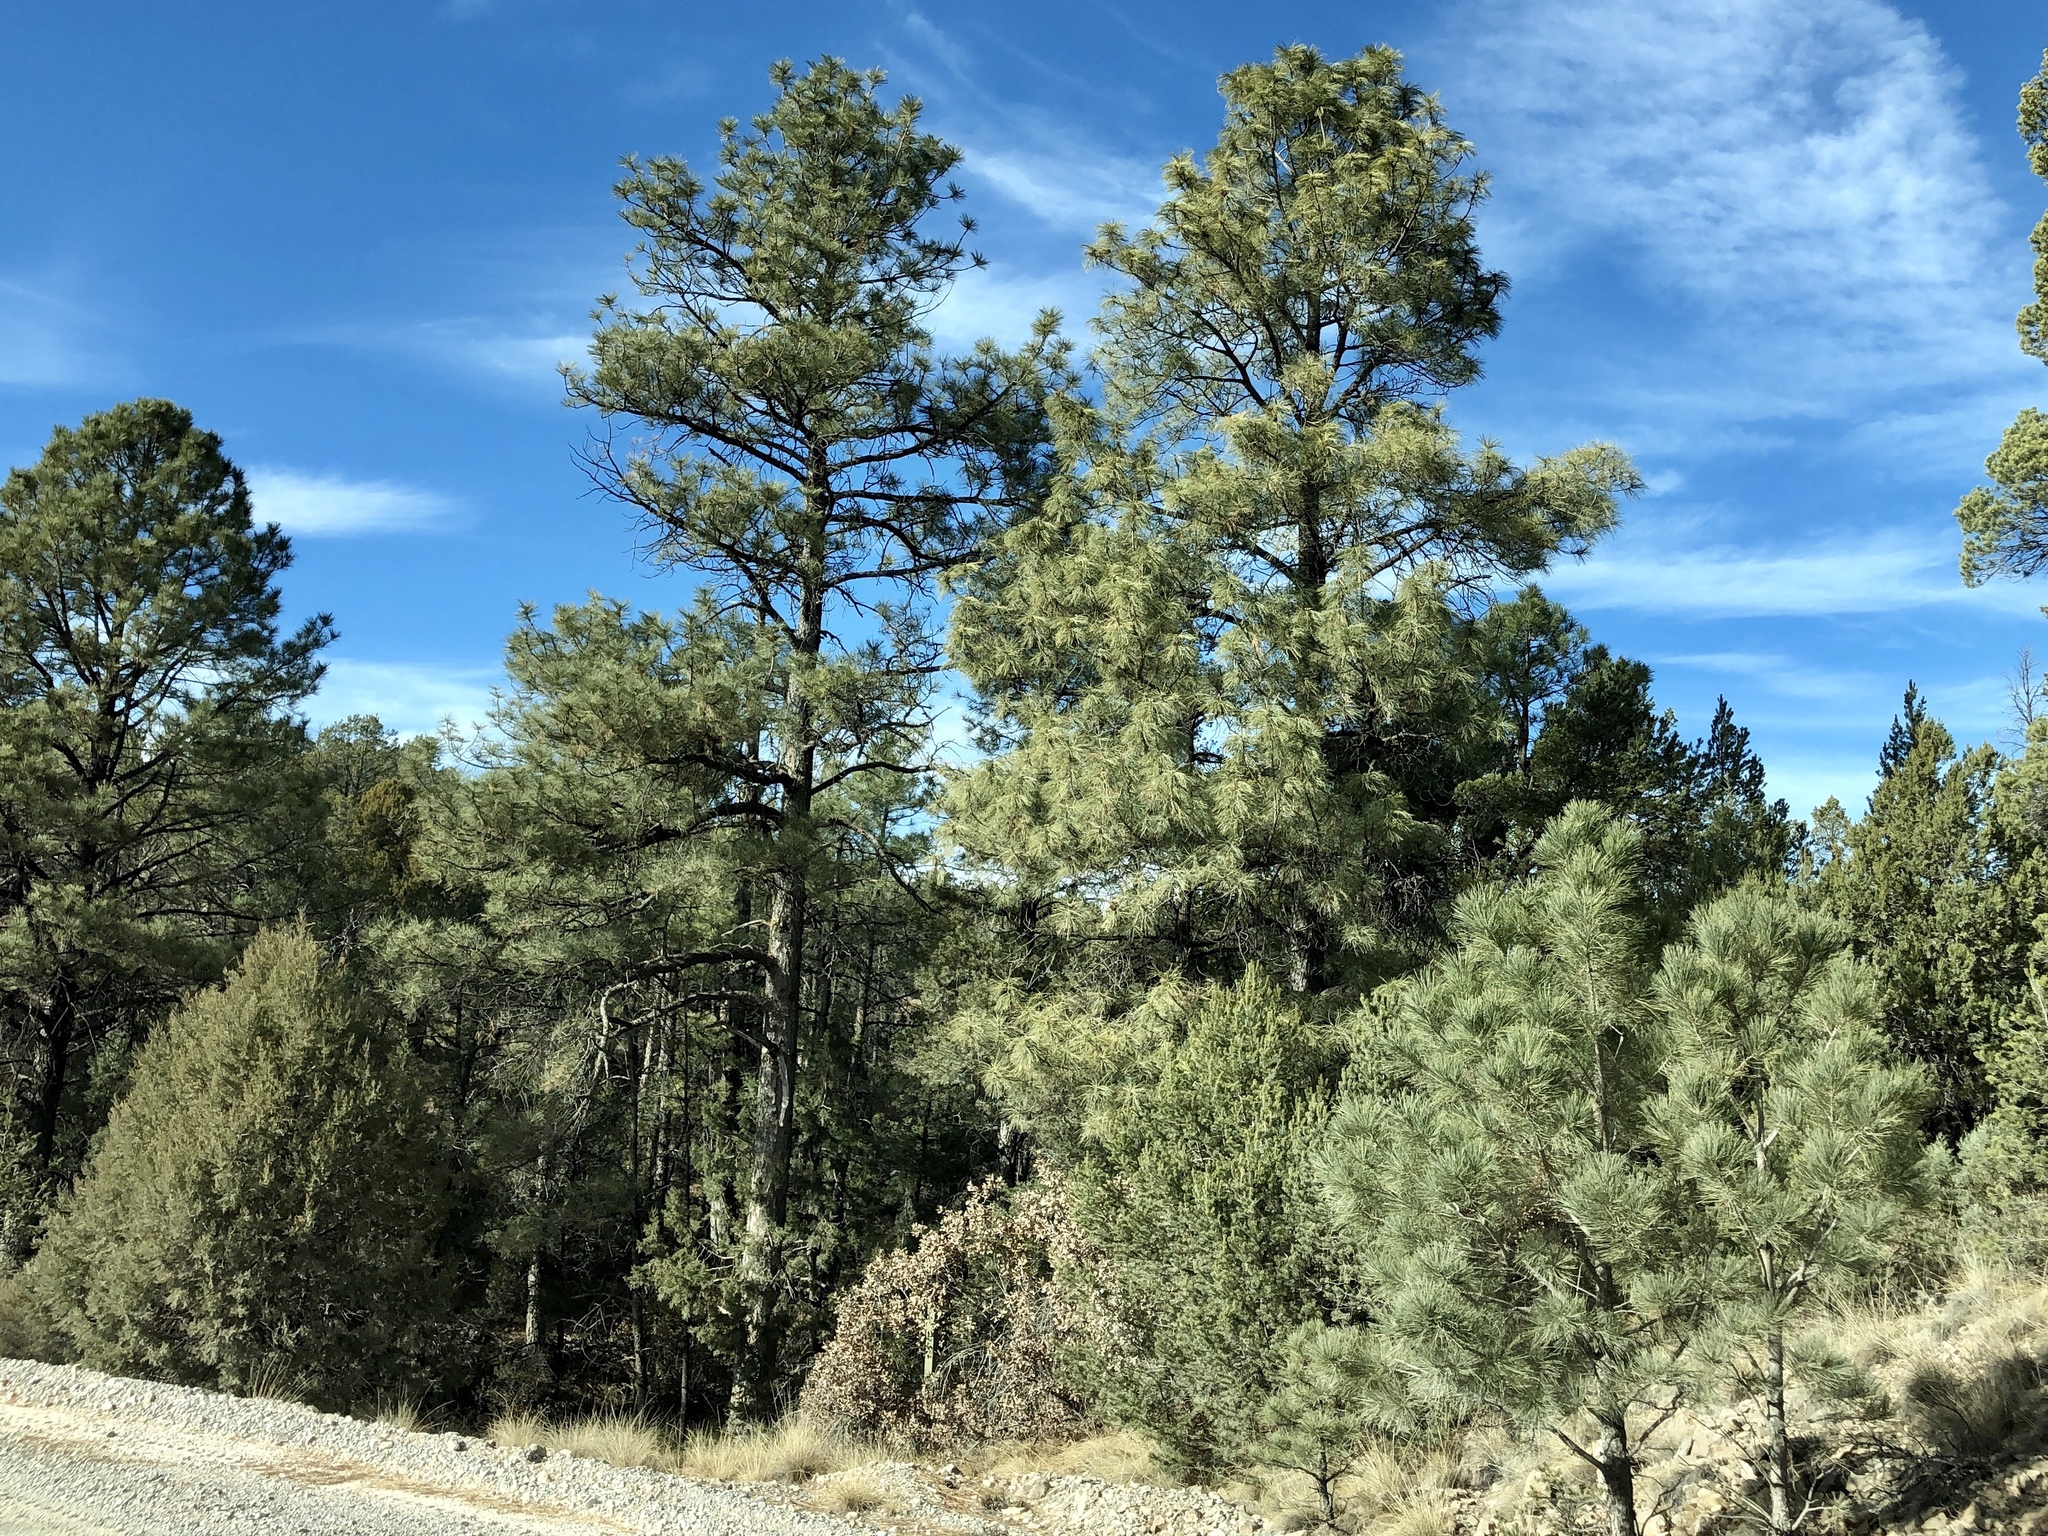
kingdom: Plantae
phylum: Tracheophyta
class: Pinopsida
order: Pinales
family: Pinaceae
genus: Pinus
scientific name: Pinus ponderosa
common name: Western yellow-pine
